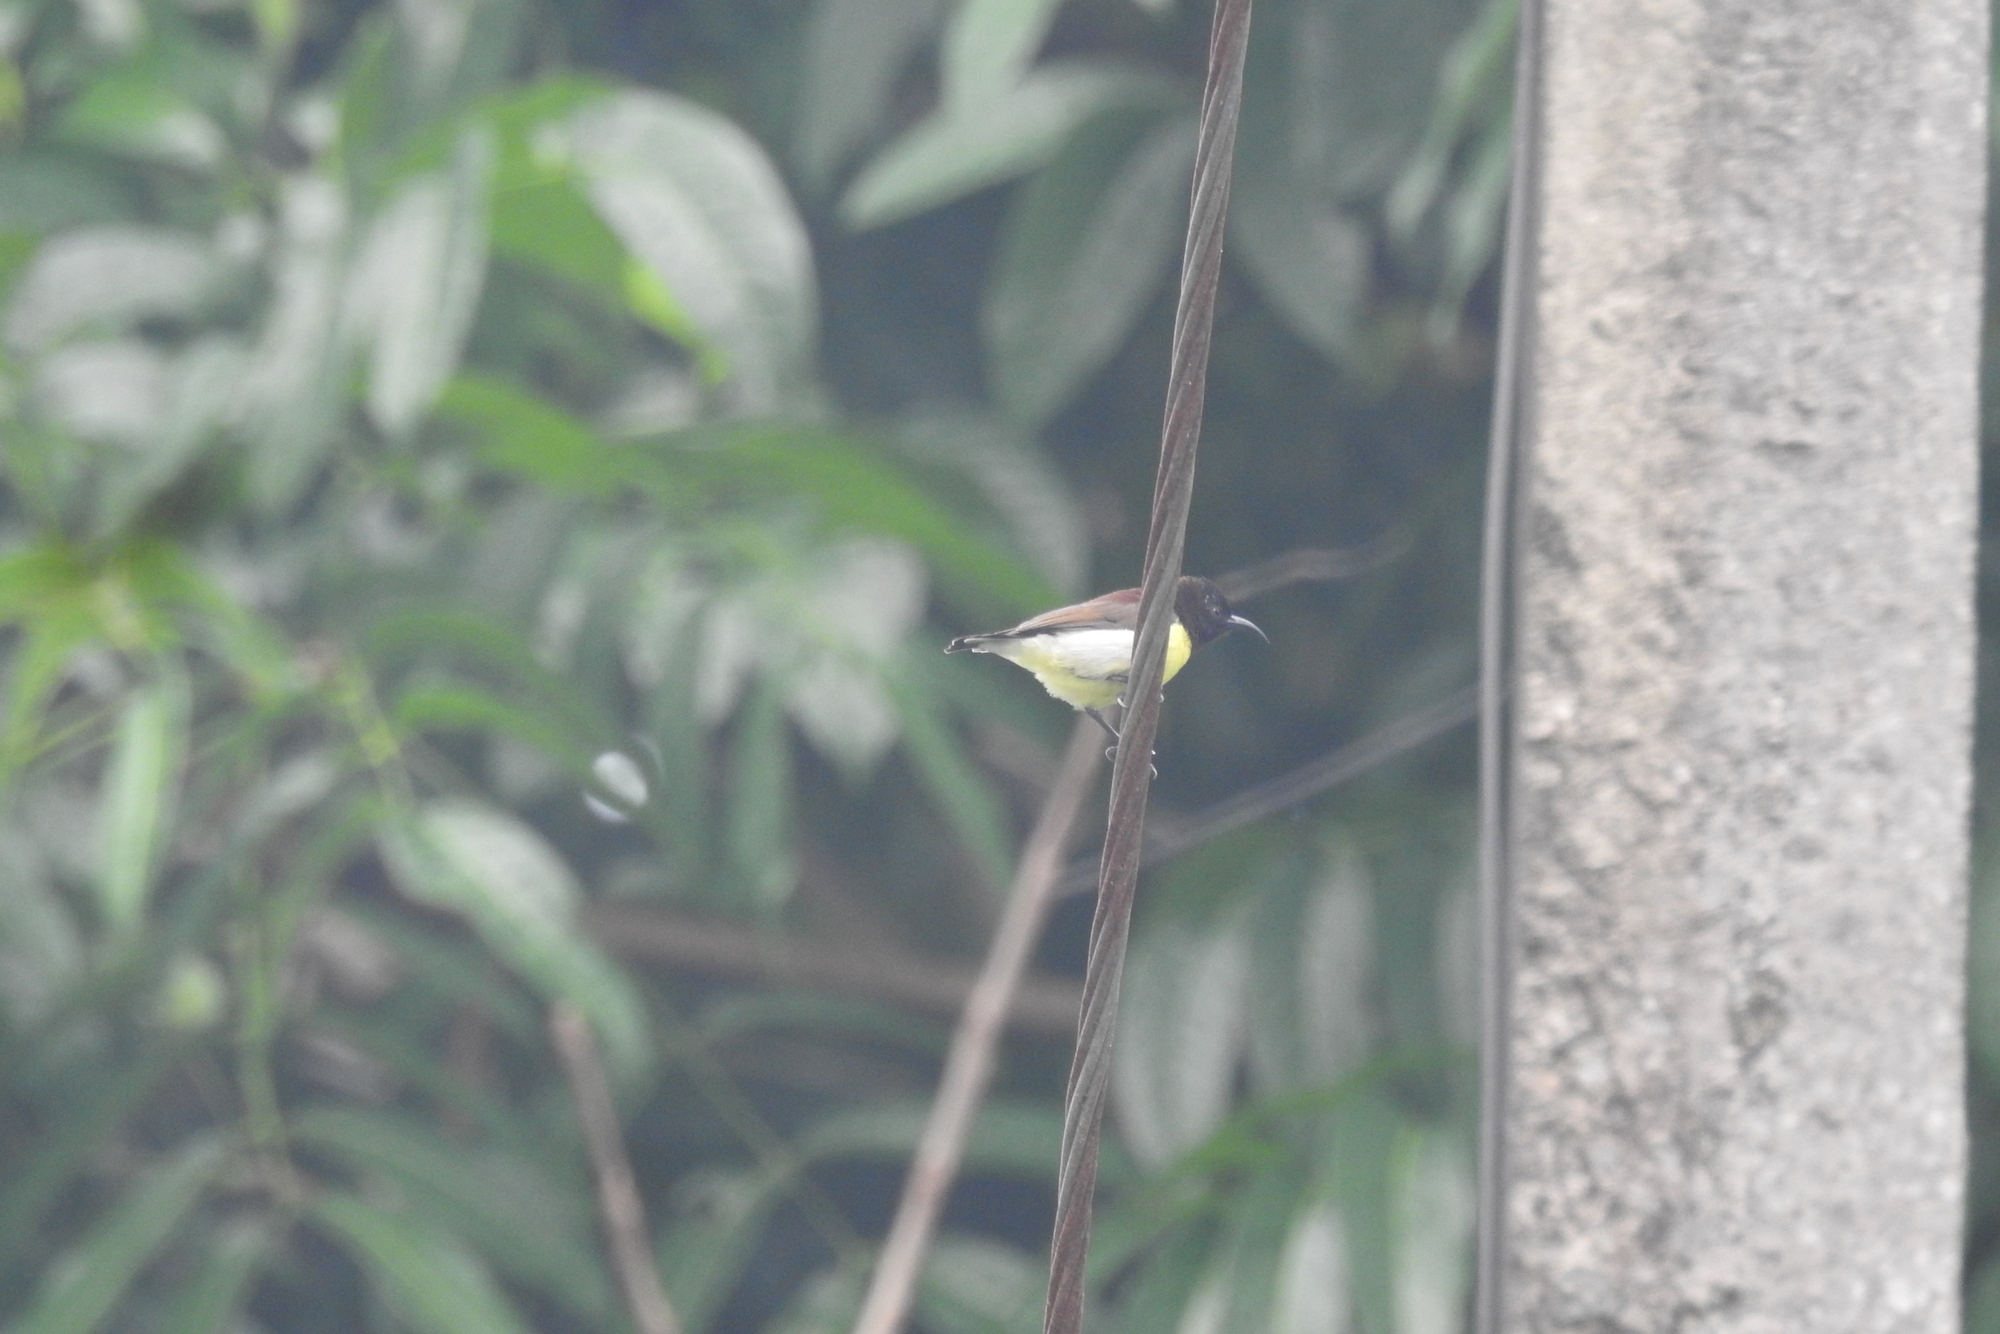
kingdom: Animalia
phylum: Chordata
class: Aves
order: Passeriformes
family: Nectariniidae
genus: Leptocoma
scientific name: Leptocoma zeylonica
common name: Purple-rumped sunbird
